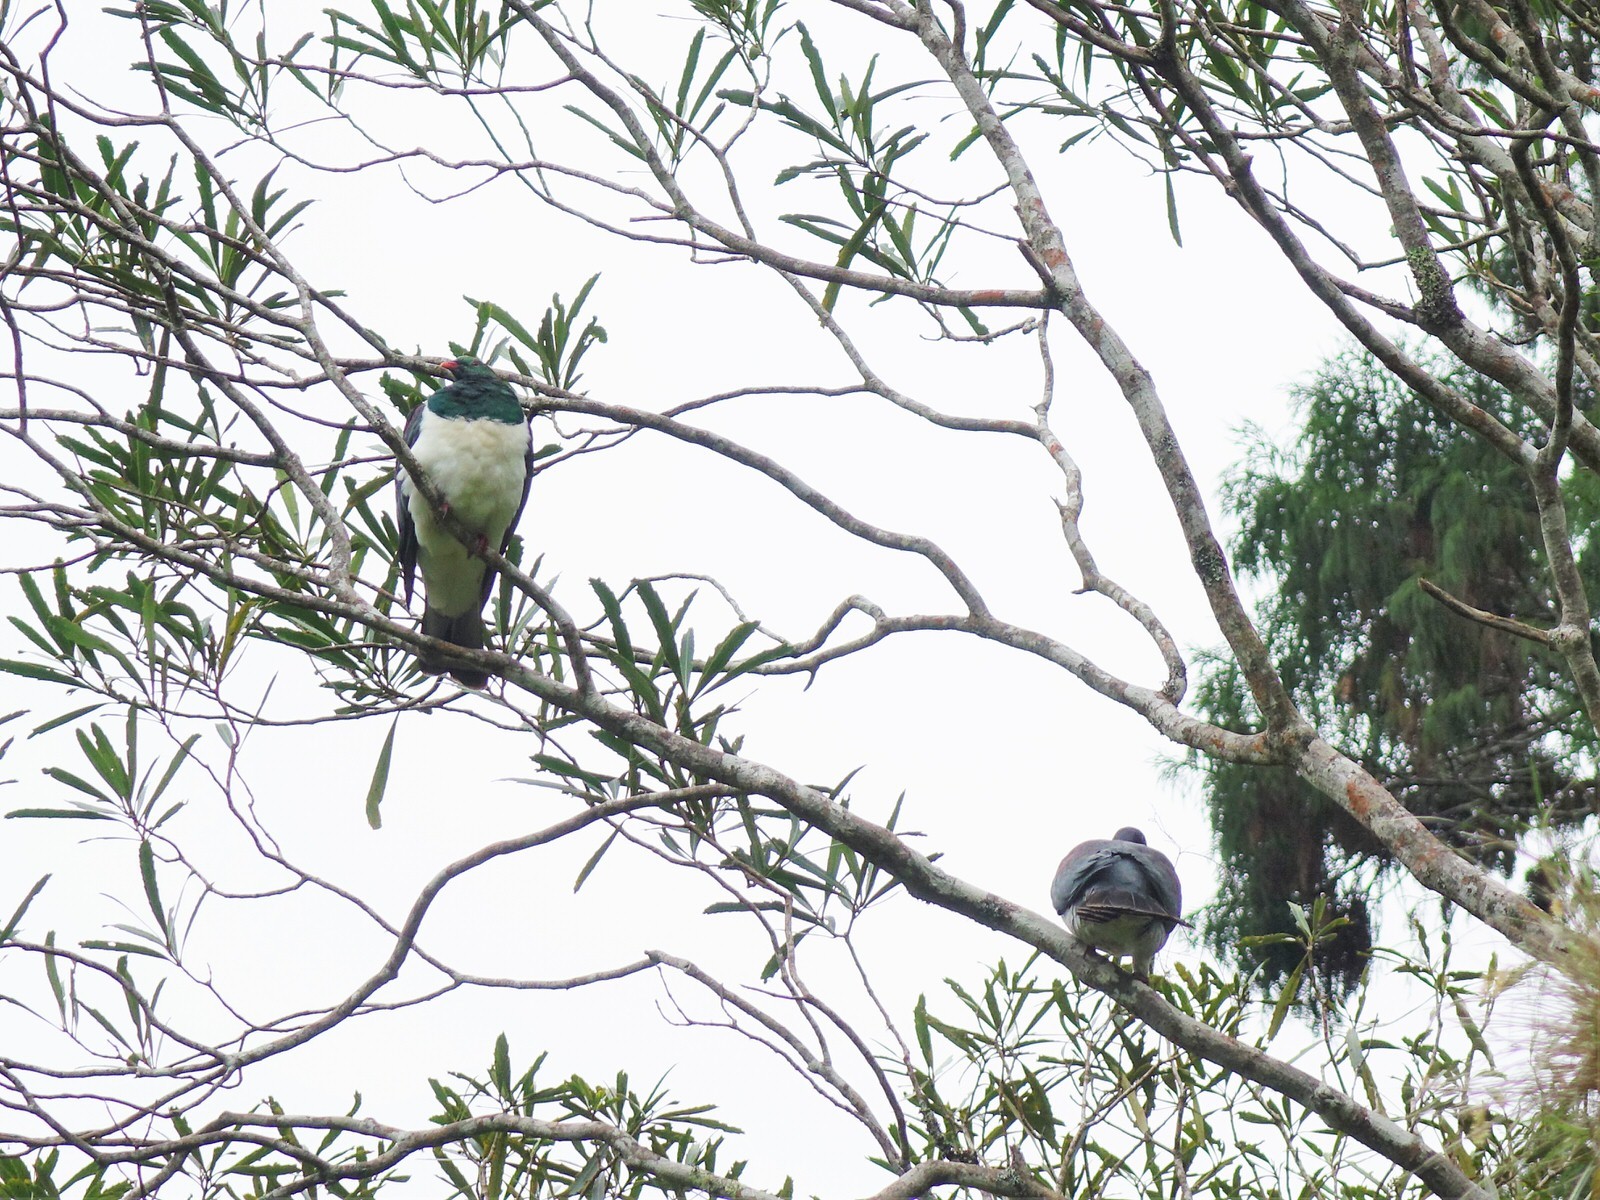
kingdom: Animalia
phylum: Chordata
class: Aves
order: Columbiformes
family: Columbidae
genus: Hemiphaga
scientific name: Hemiphaga novaeseelandiae
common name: New zealand pigeon
